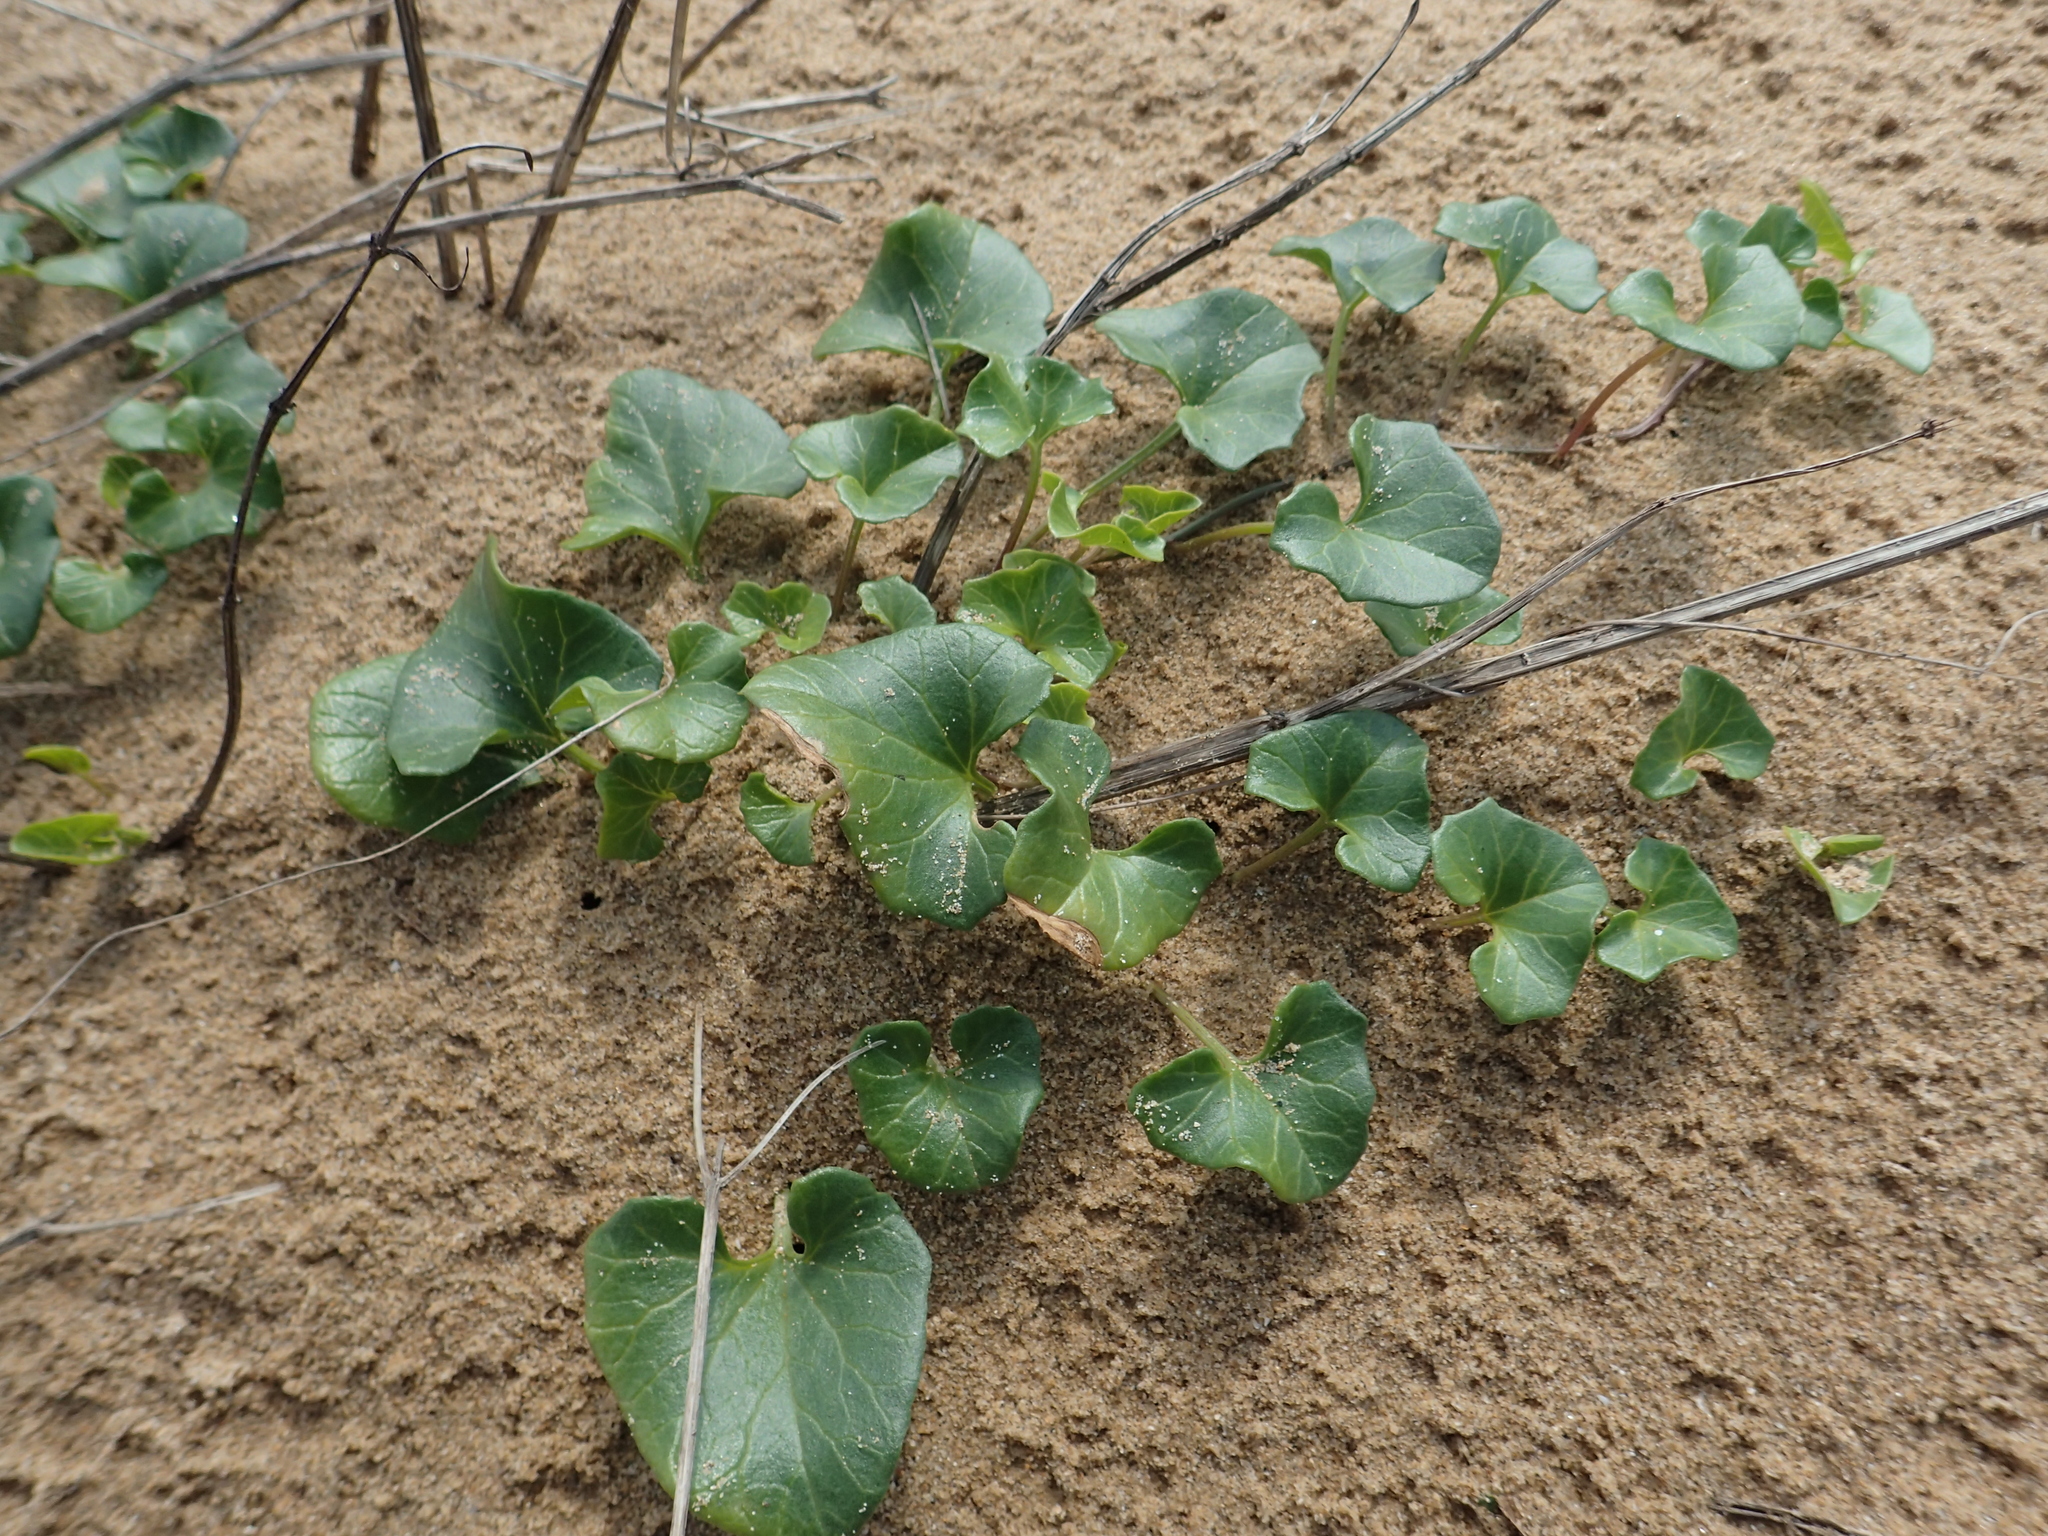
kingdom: Plantae
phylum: Tracheophyta
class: Magnoliopsida
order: Solanales
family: Convolvulaceae
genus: Calystegia
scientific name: Calystegia soldanella
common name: Sea bindweed
